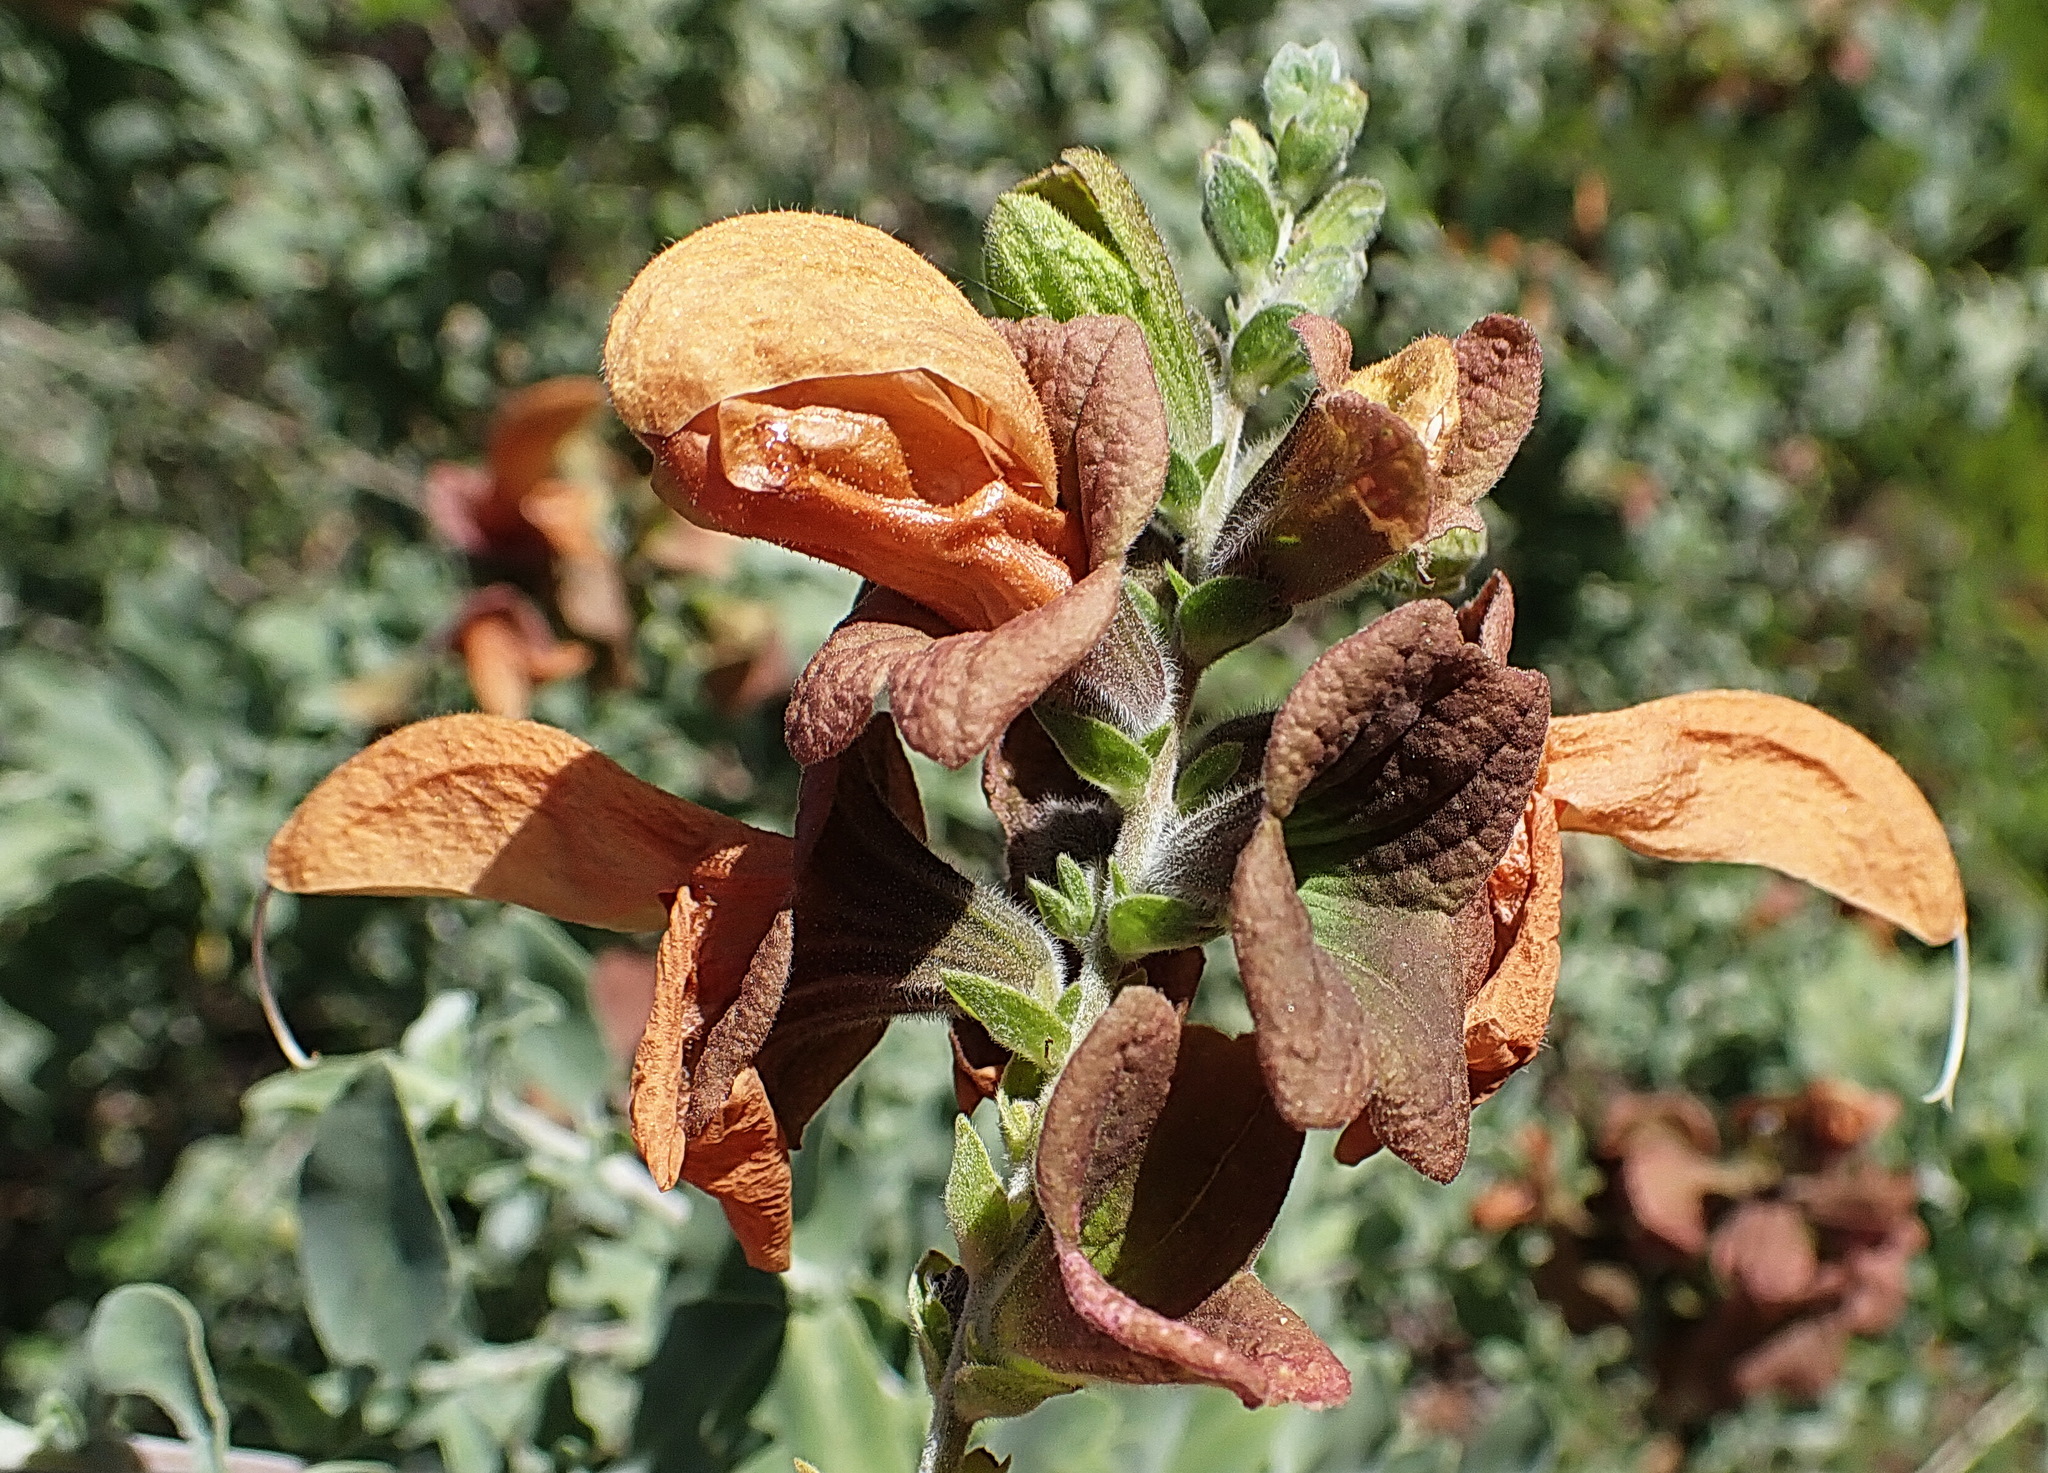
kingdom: Plantae
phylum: Tracheophyta
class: Magnoliopsida
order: Lamiales
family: Lamiaceae
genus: Salvia
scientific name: Salvia aurea
